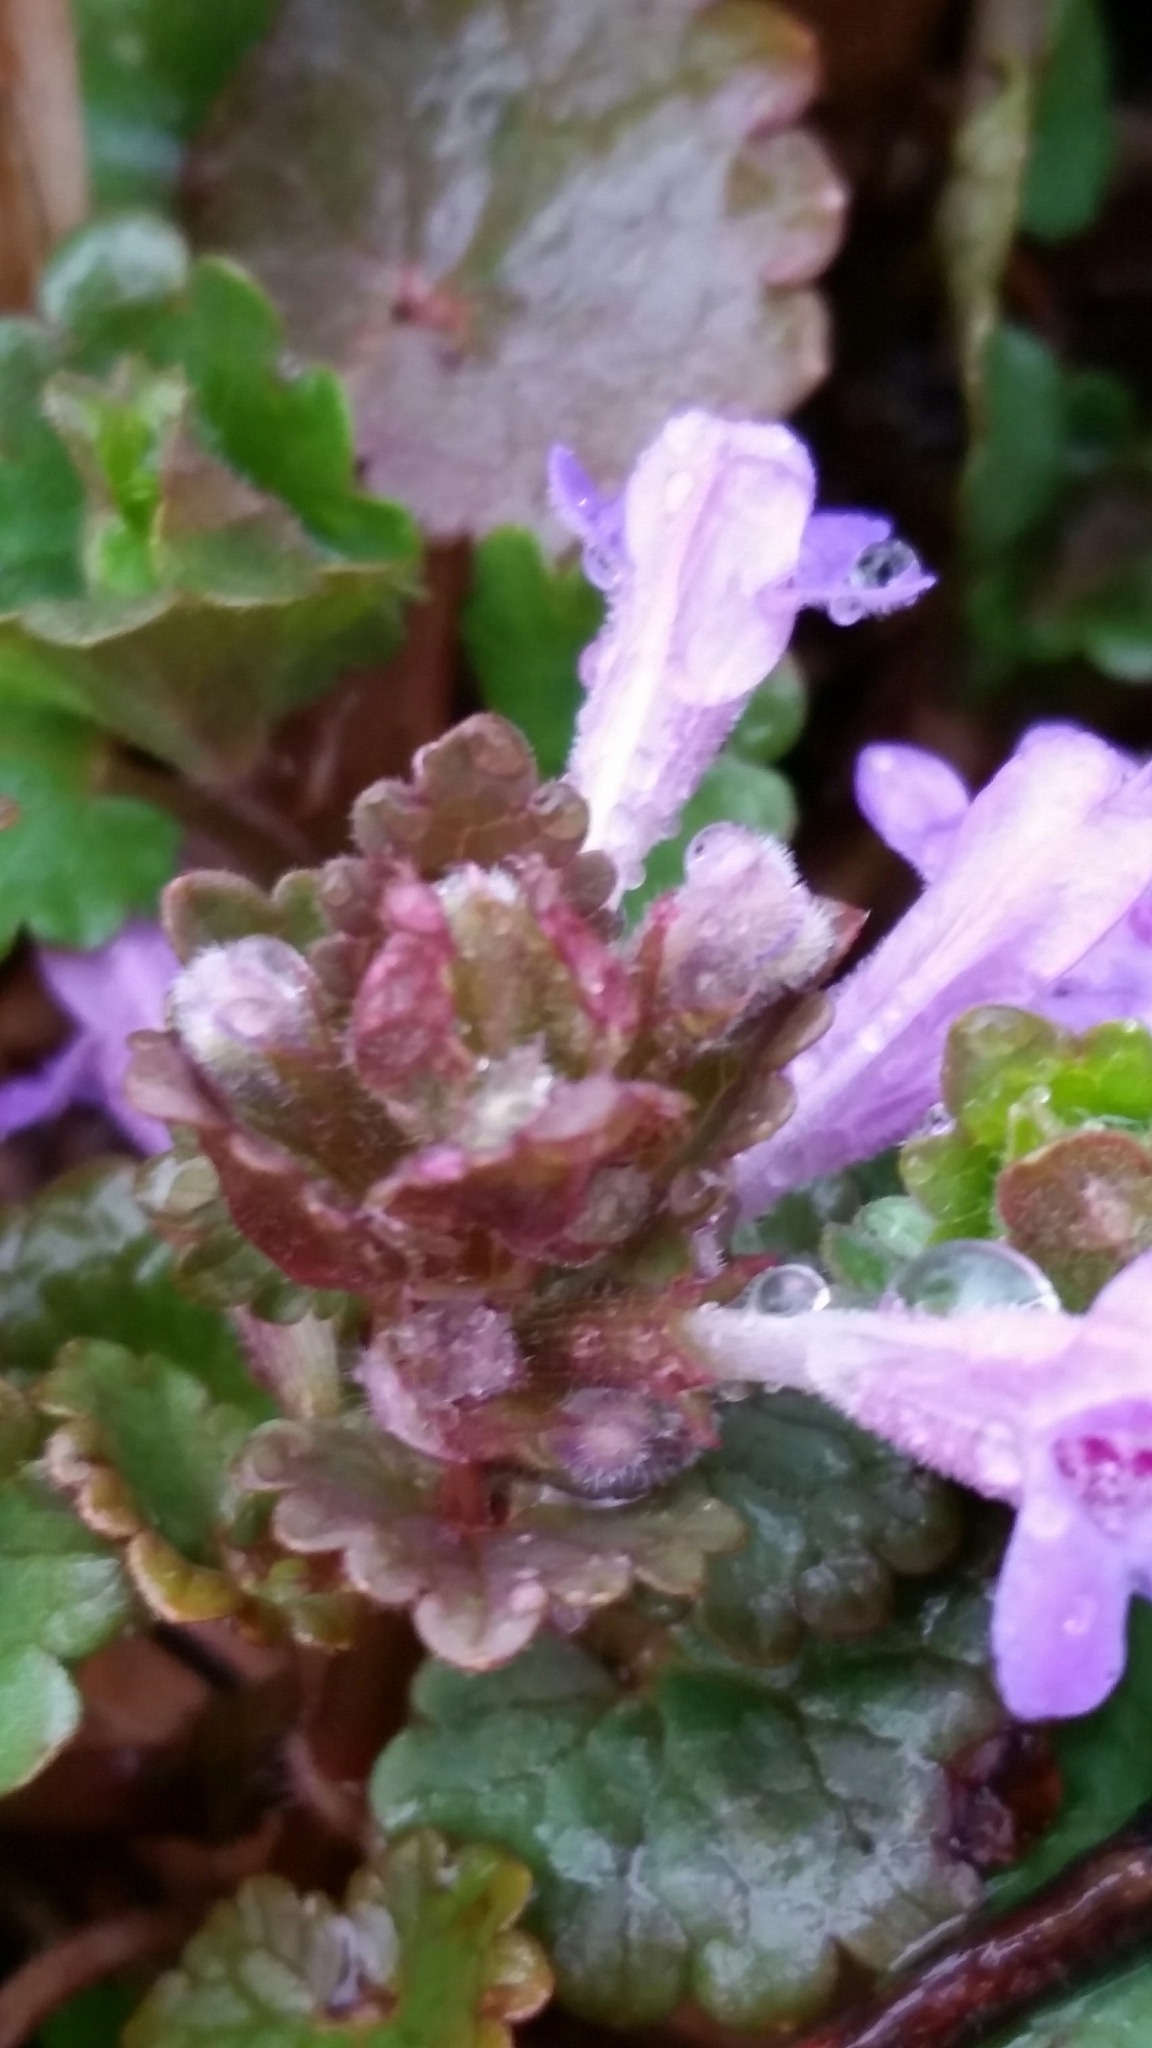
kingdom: Plantae
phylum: Tracheophyta
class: Magnoliopsida
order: Lamiales
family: Lamiaceae
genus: Glechoma
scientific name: Glechoma hederacea
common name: Ground ivy
